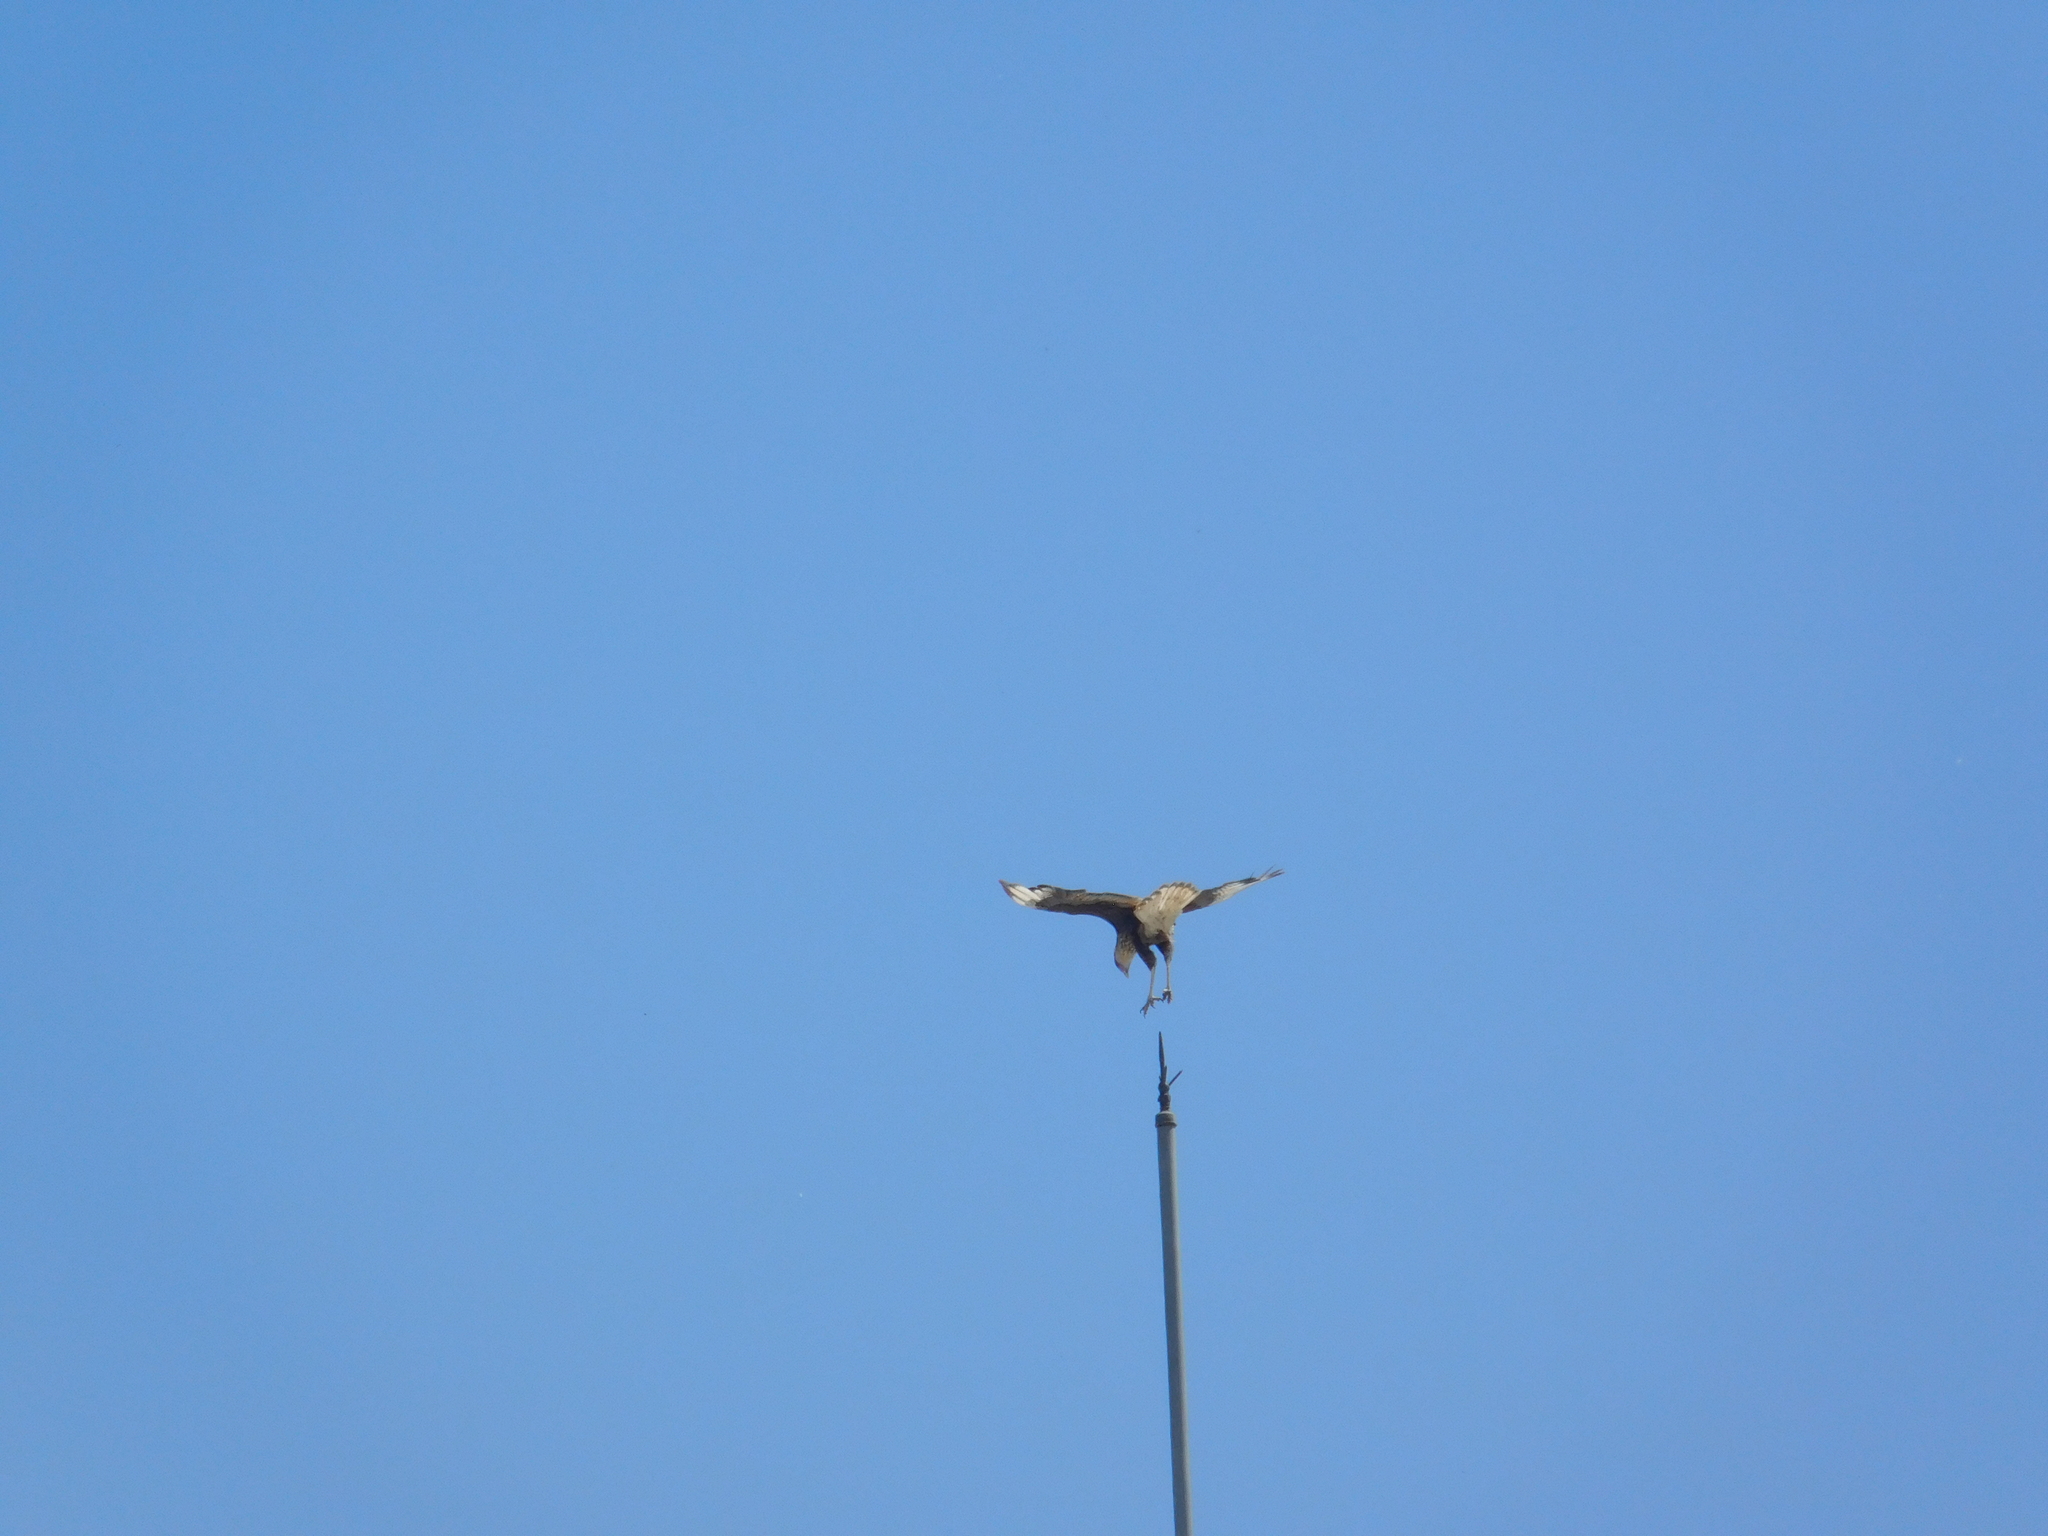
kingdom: Animalia
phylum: Chordata
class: Aves
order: Falconiformes
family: Falconidae
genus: Caracara
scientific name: Caracara plancus
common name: Southern caracara
